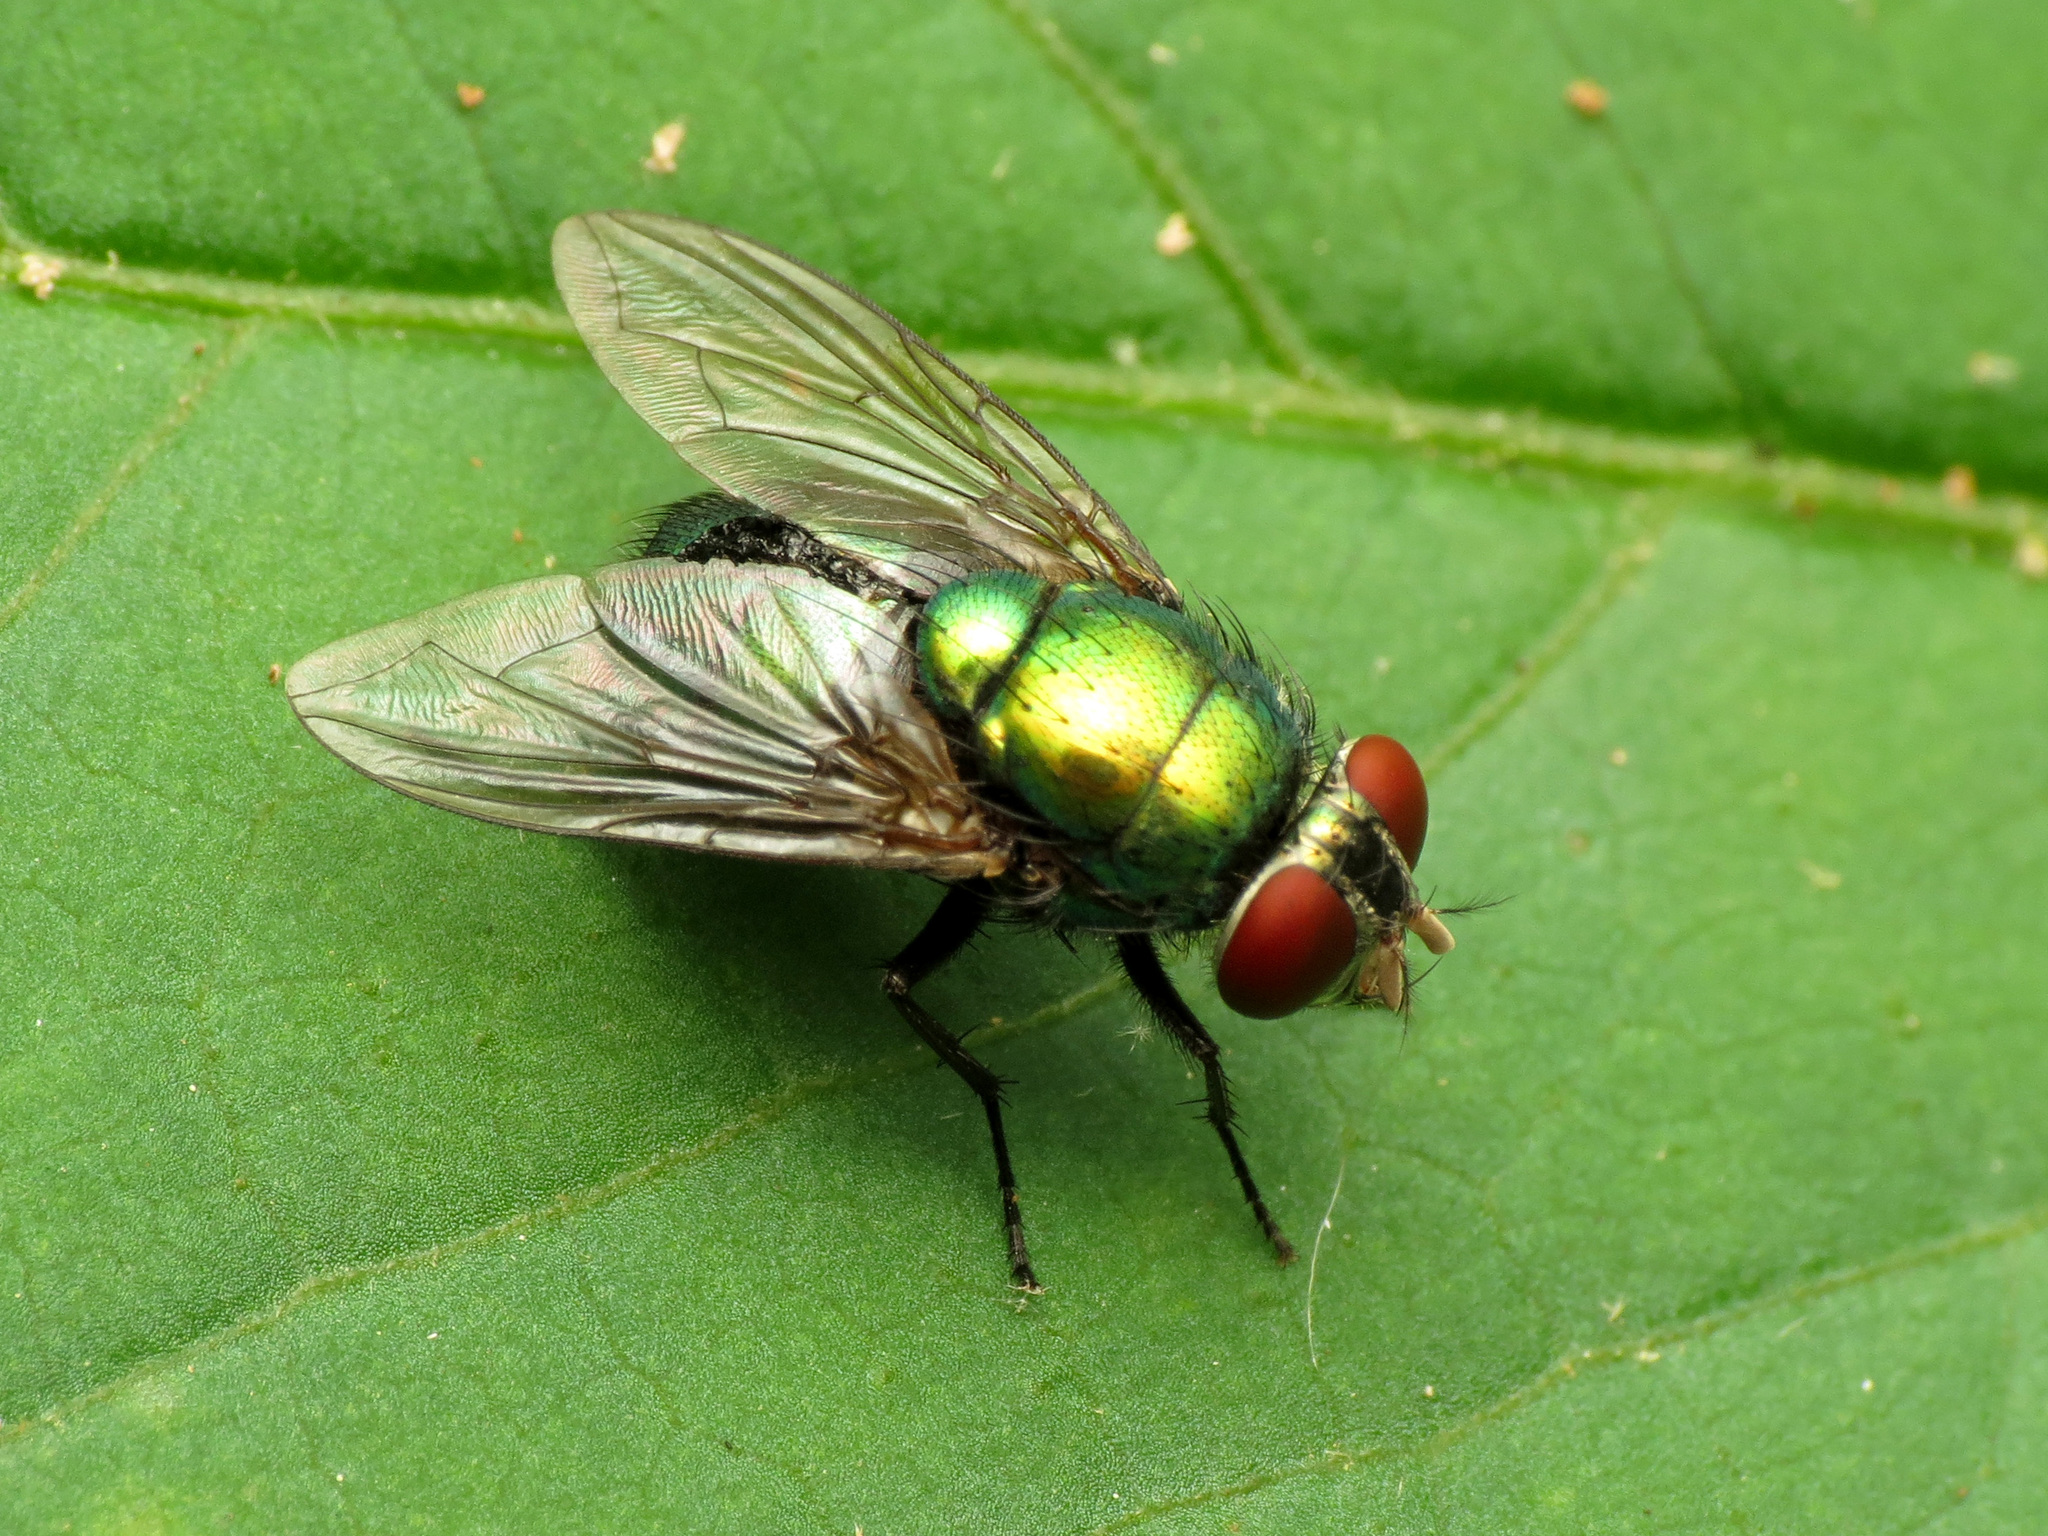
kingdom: Animalia
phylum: Arthropoda
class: Insecta
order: Diptera
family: Calliphoridae
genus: Lucilia
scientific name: Lucilia caeruleiviridis
